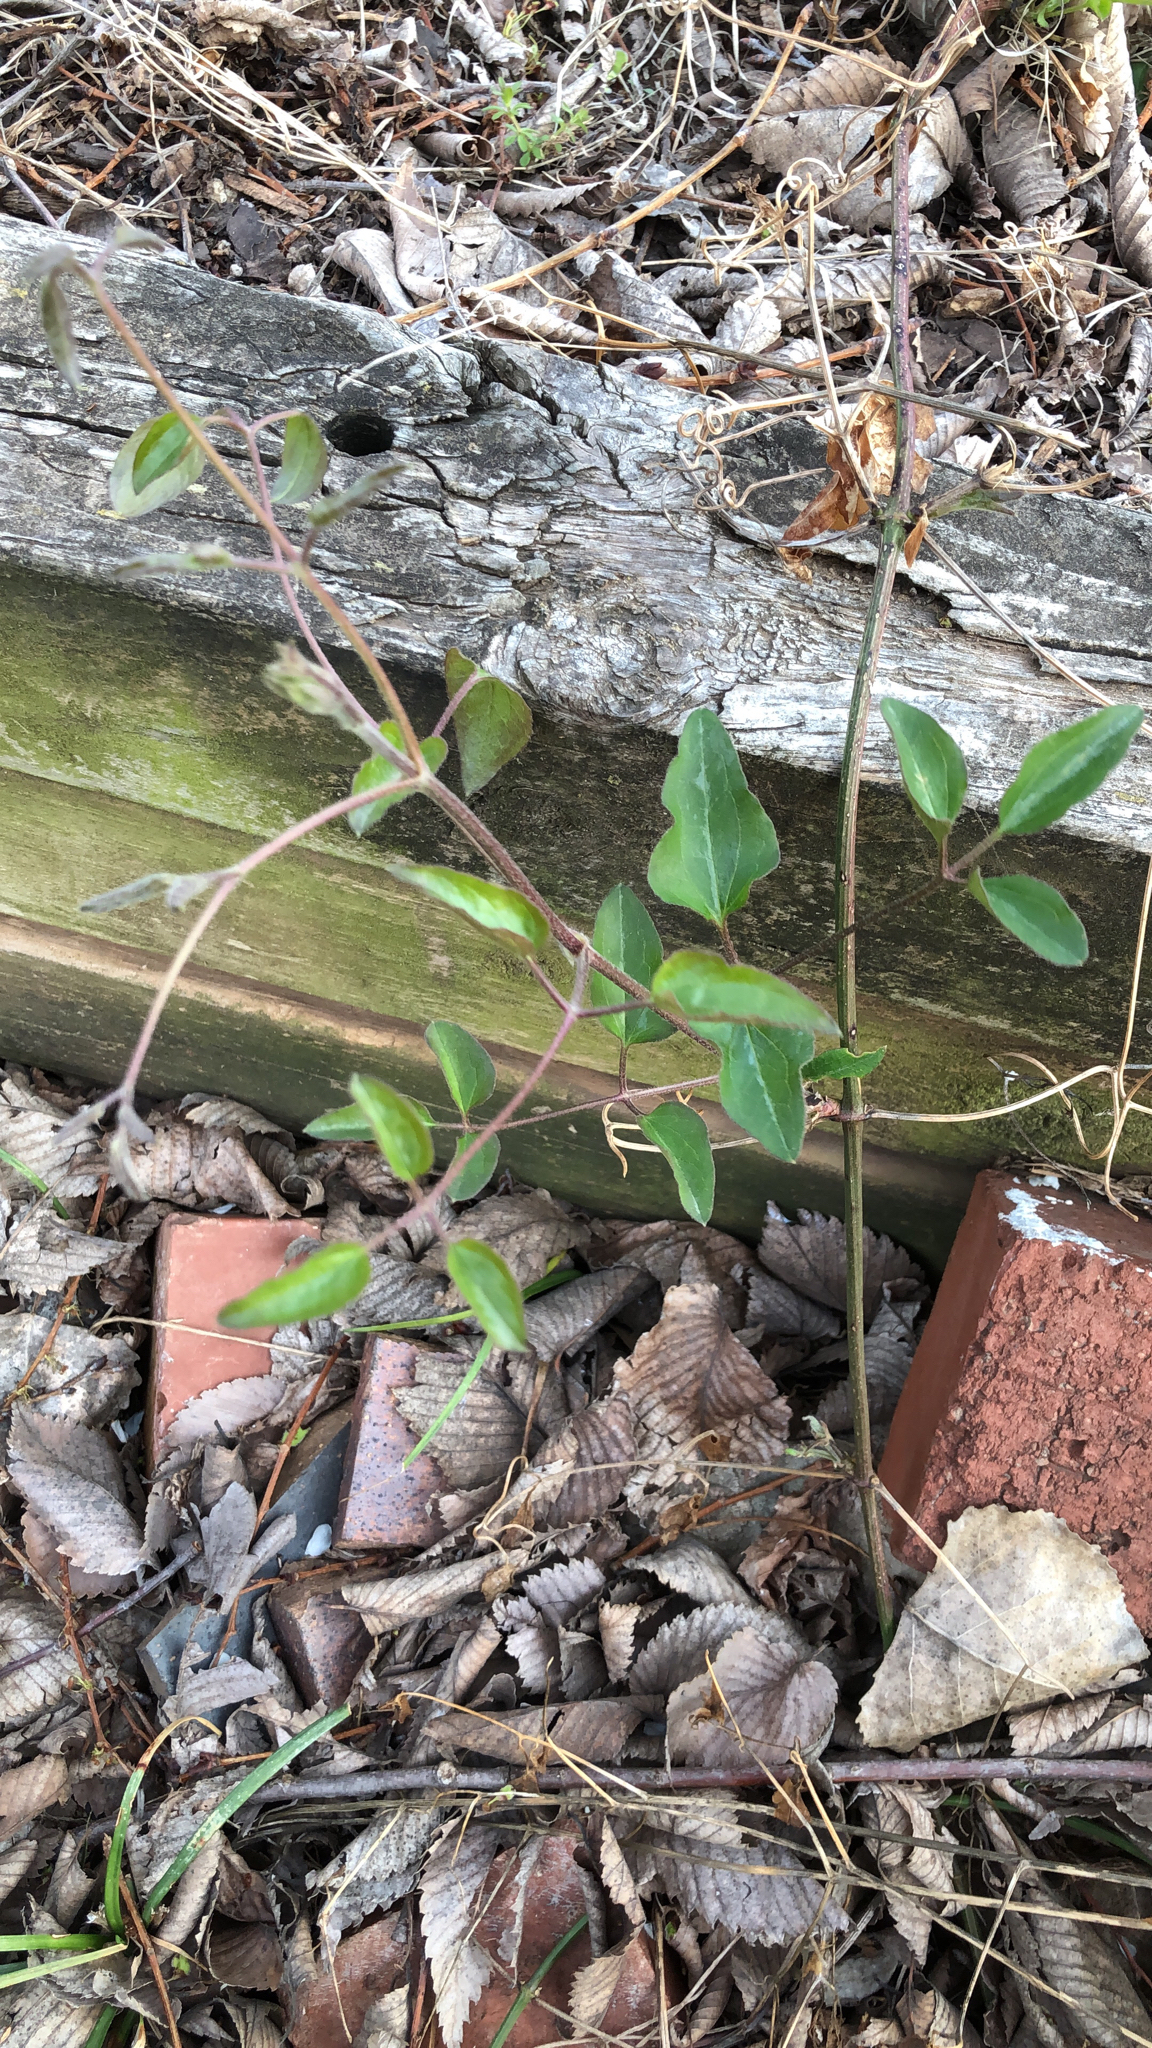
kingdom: Plantae
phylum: Tracheophyta
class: Magnoliopsida
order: Ranunculales
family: Ranunculaceae
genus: Clematis
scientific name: Clematis terniflora
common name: Sweet autumn clematis
